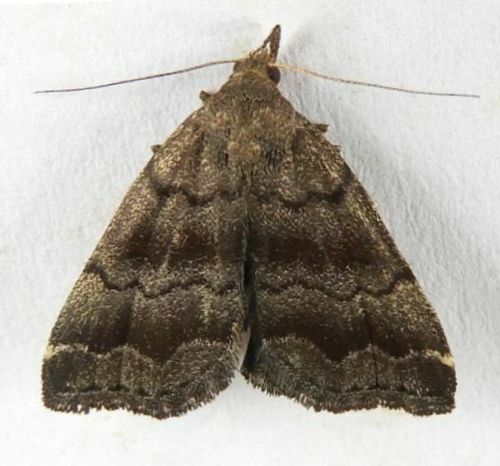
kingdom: Animalia
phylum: Arthropoda
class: Insecta
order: Lepidoptera
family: Erebidae
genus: Phalaenostola
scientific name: Phalaenostola larentioides
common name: Black-banded owlet
